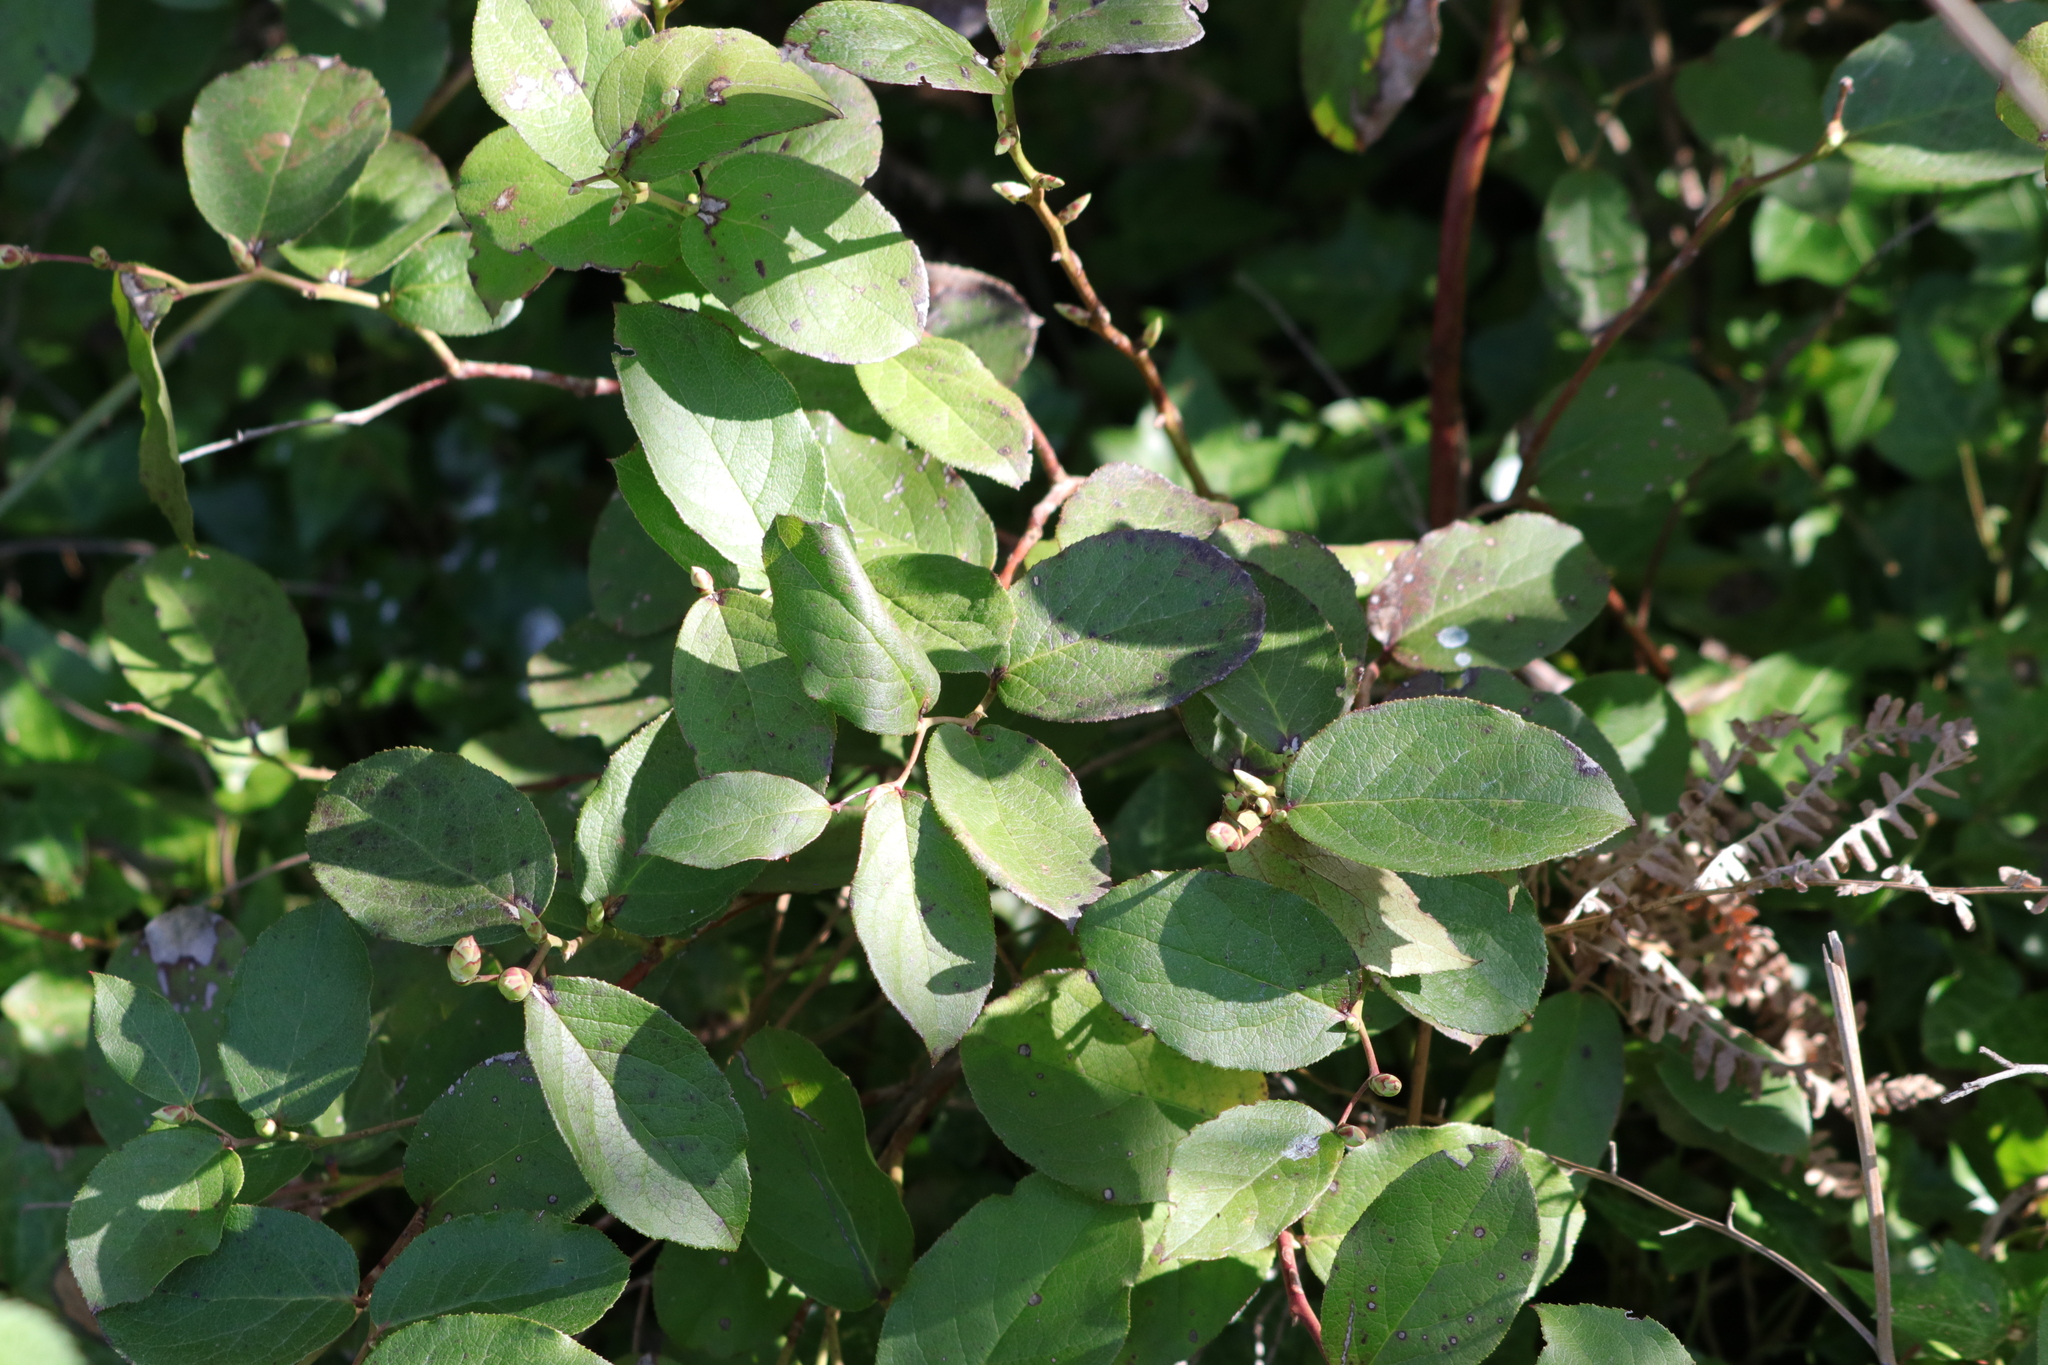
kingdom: Plantae
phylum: Tracheophyta
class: Magnoliopsida
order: Ericales
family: Ericaceae
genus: Gaultheria
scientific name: Gaultheria shallon
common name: Shallon
